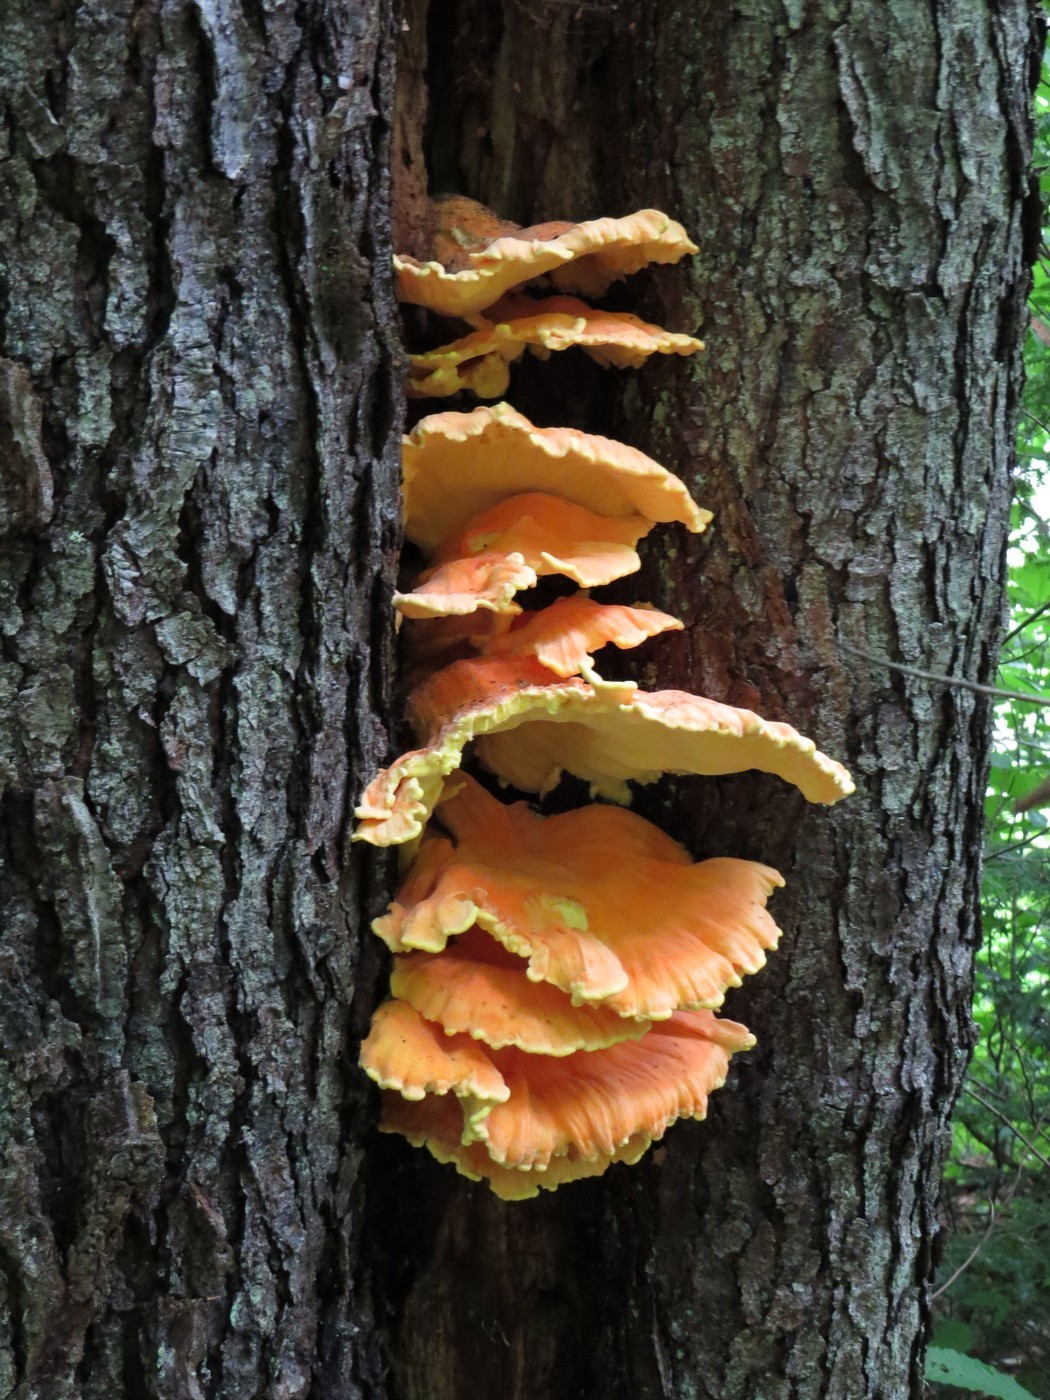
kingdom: Fungi
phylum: Basidiomycota
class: Agaricomycetes
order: Polyporales
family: Laetiporaceae
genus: Laetiporus
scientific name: Laetiporus sulphureus
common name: Chicken of the woods
